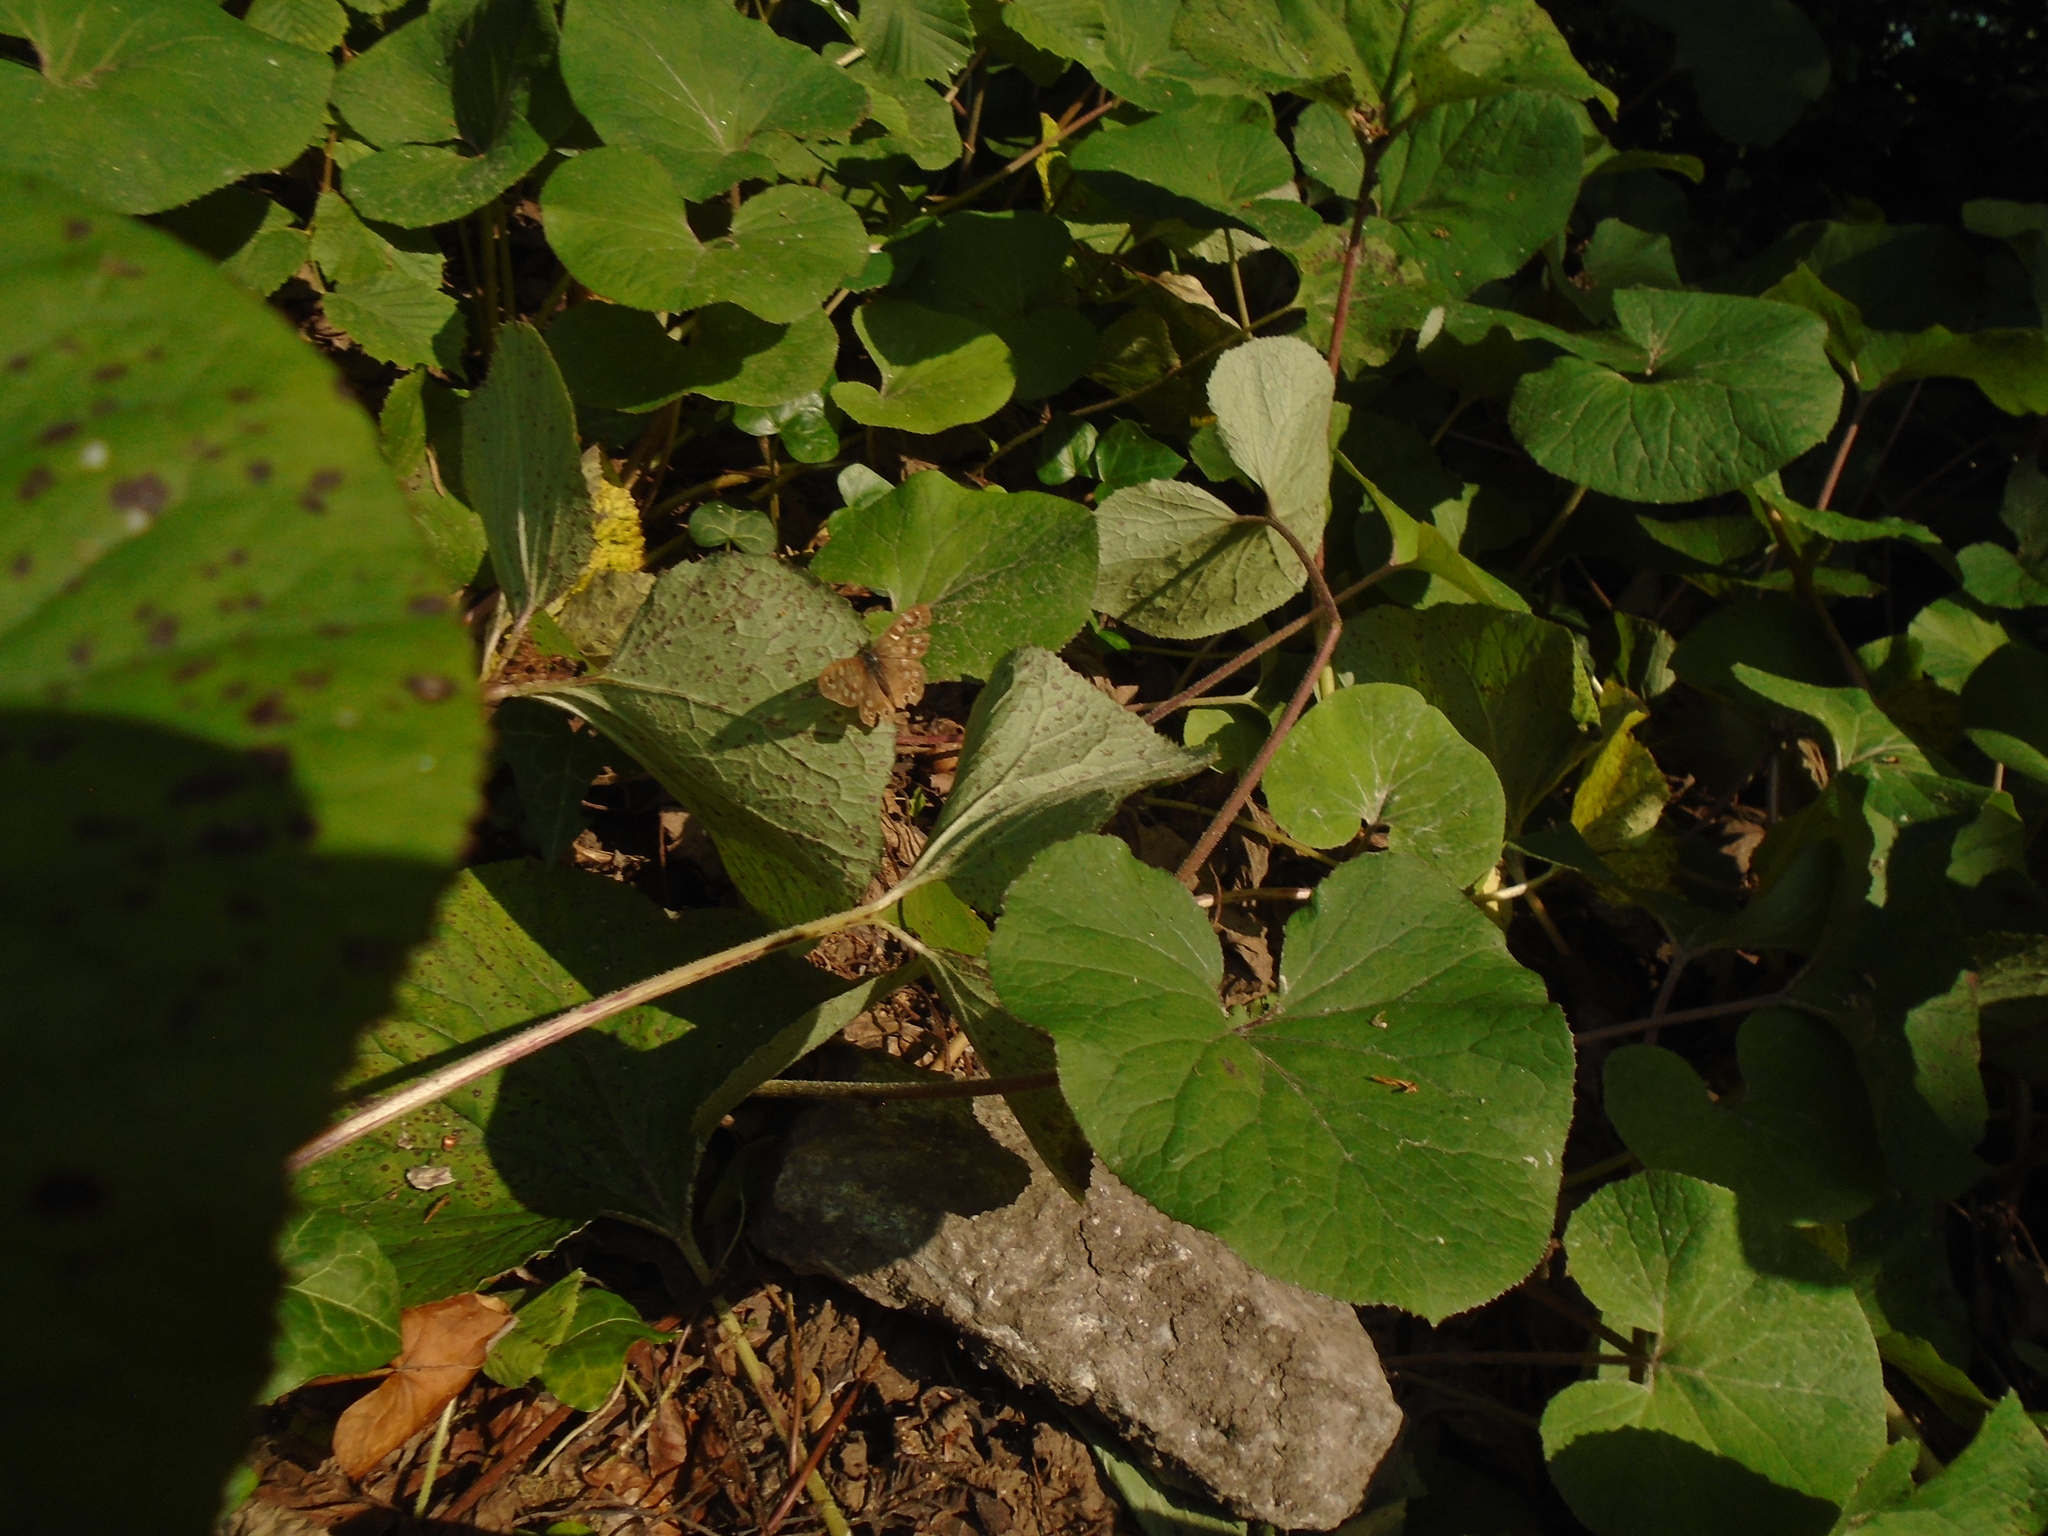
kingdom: Animalia
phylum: Arthropoda
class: Insecta
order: Lepidoptera
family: Nymphalidae
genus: Pararge
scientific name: Pararge aegeria
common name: Speckled wood
